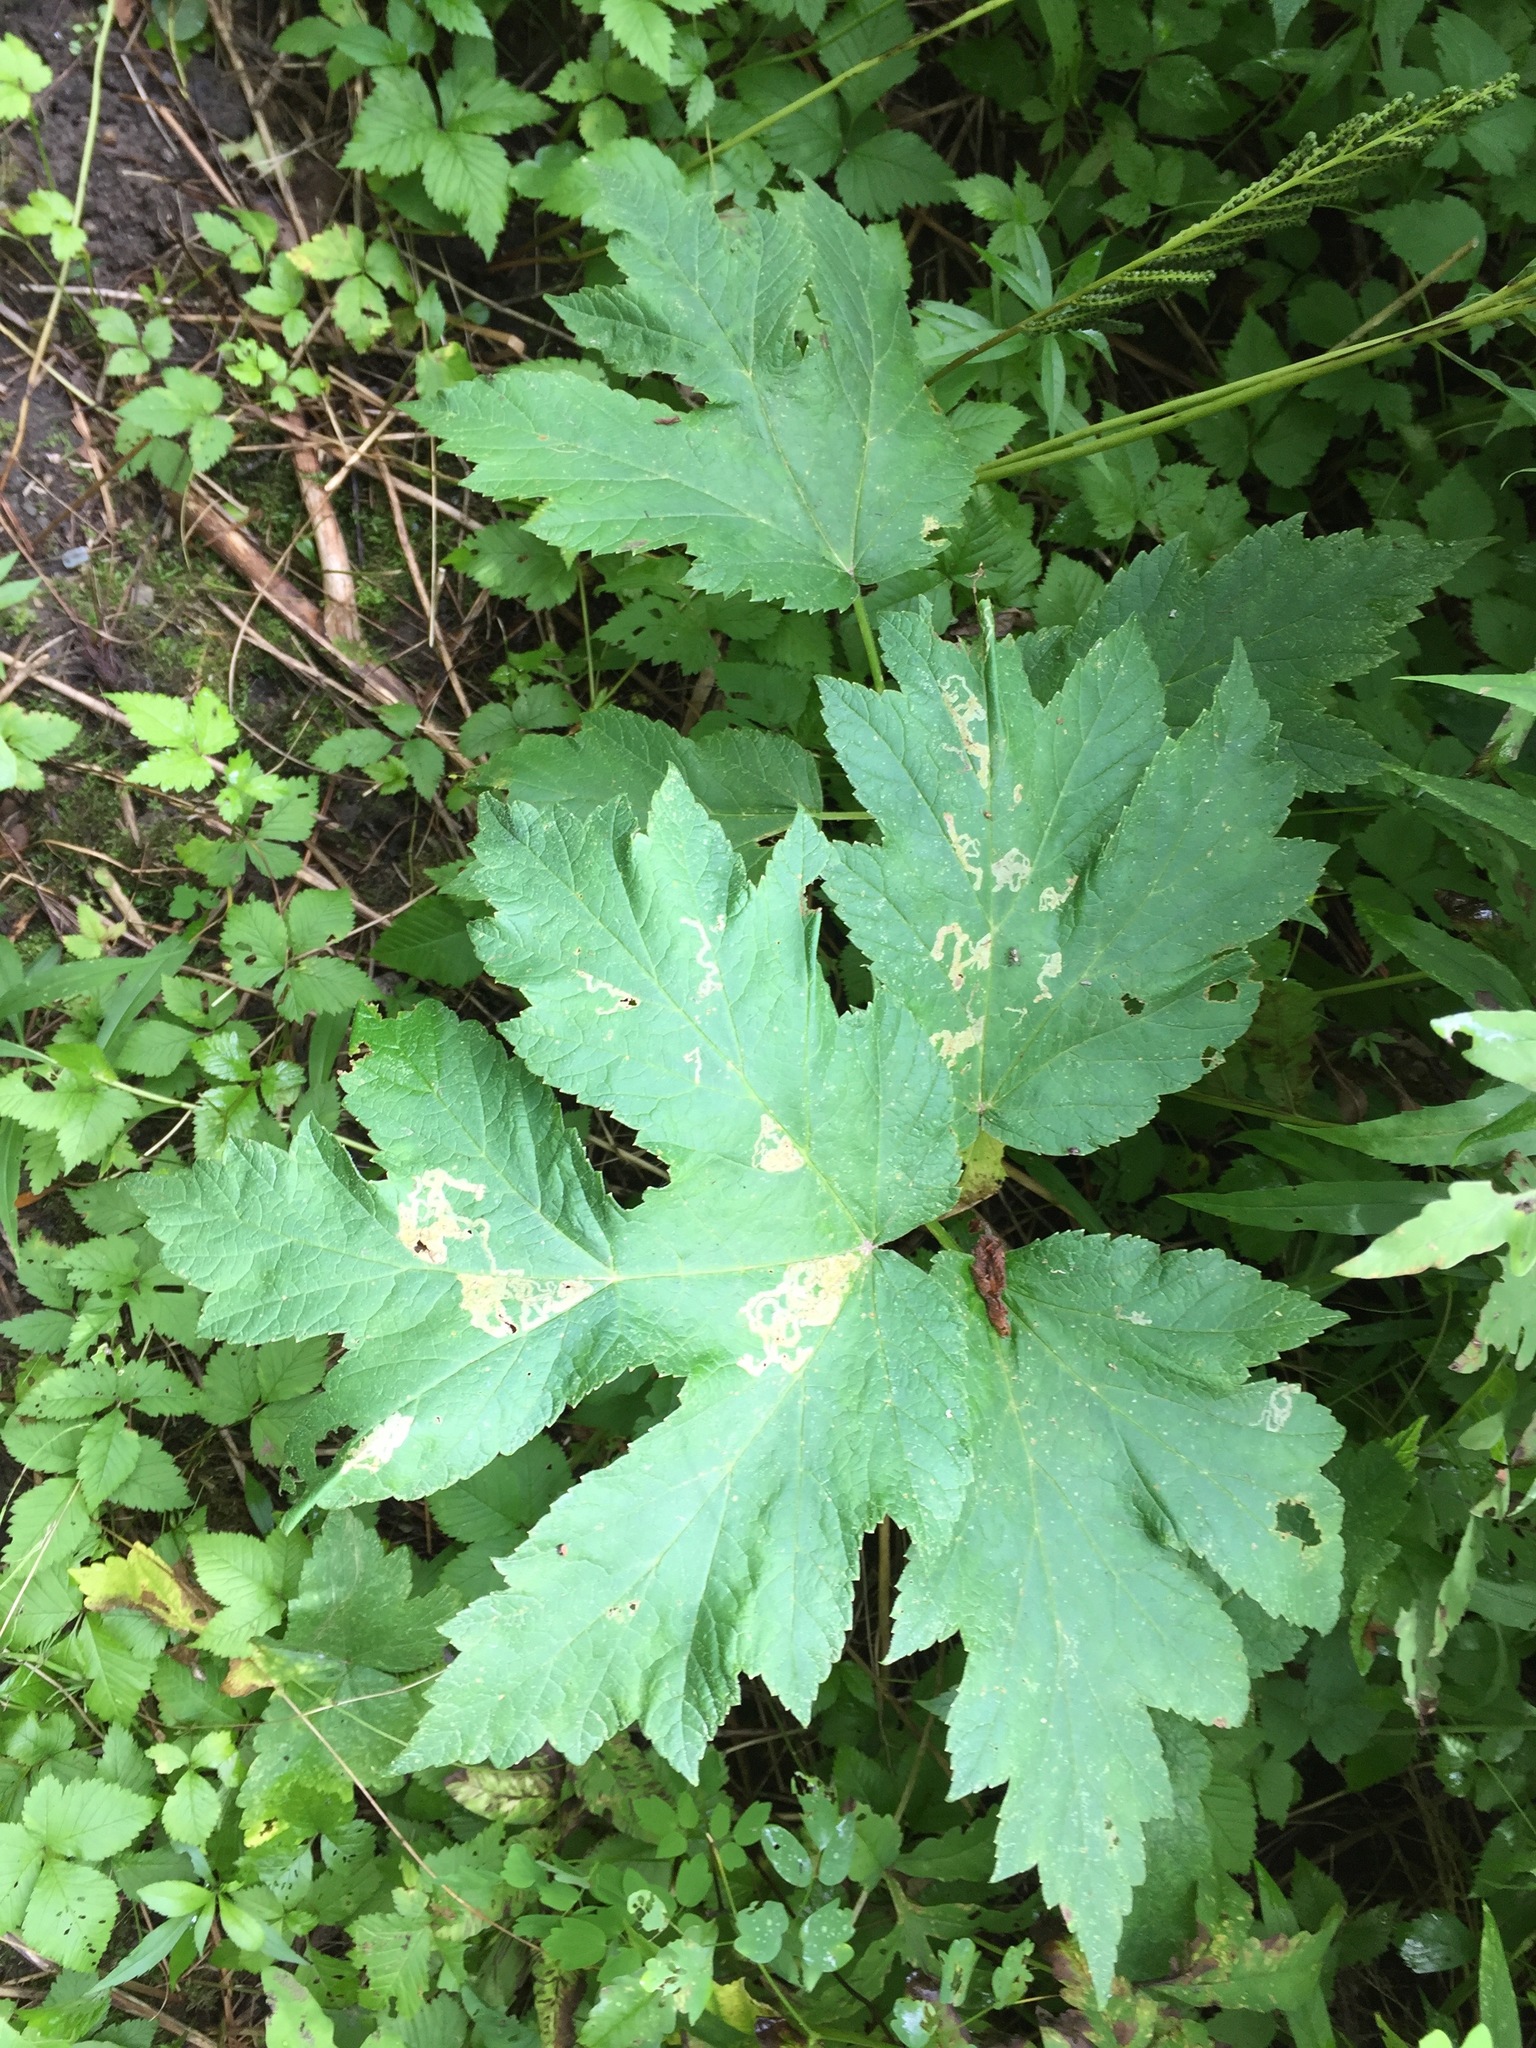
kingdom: Plantae
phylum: Tracheophyta
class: Magnoliopsida
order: Apiales
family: Apiaceae
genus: Heracleum
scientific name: Heracleum maximum
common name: American cow parsnip
